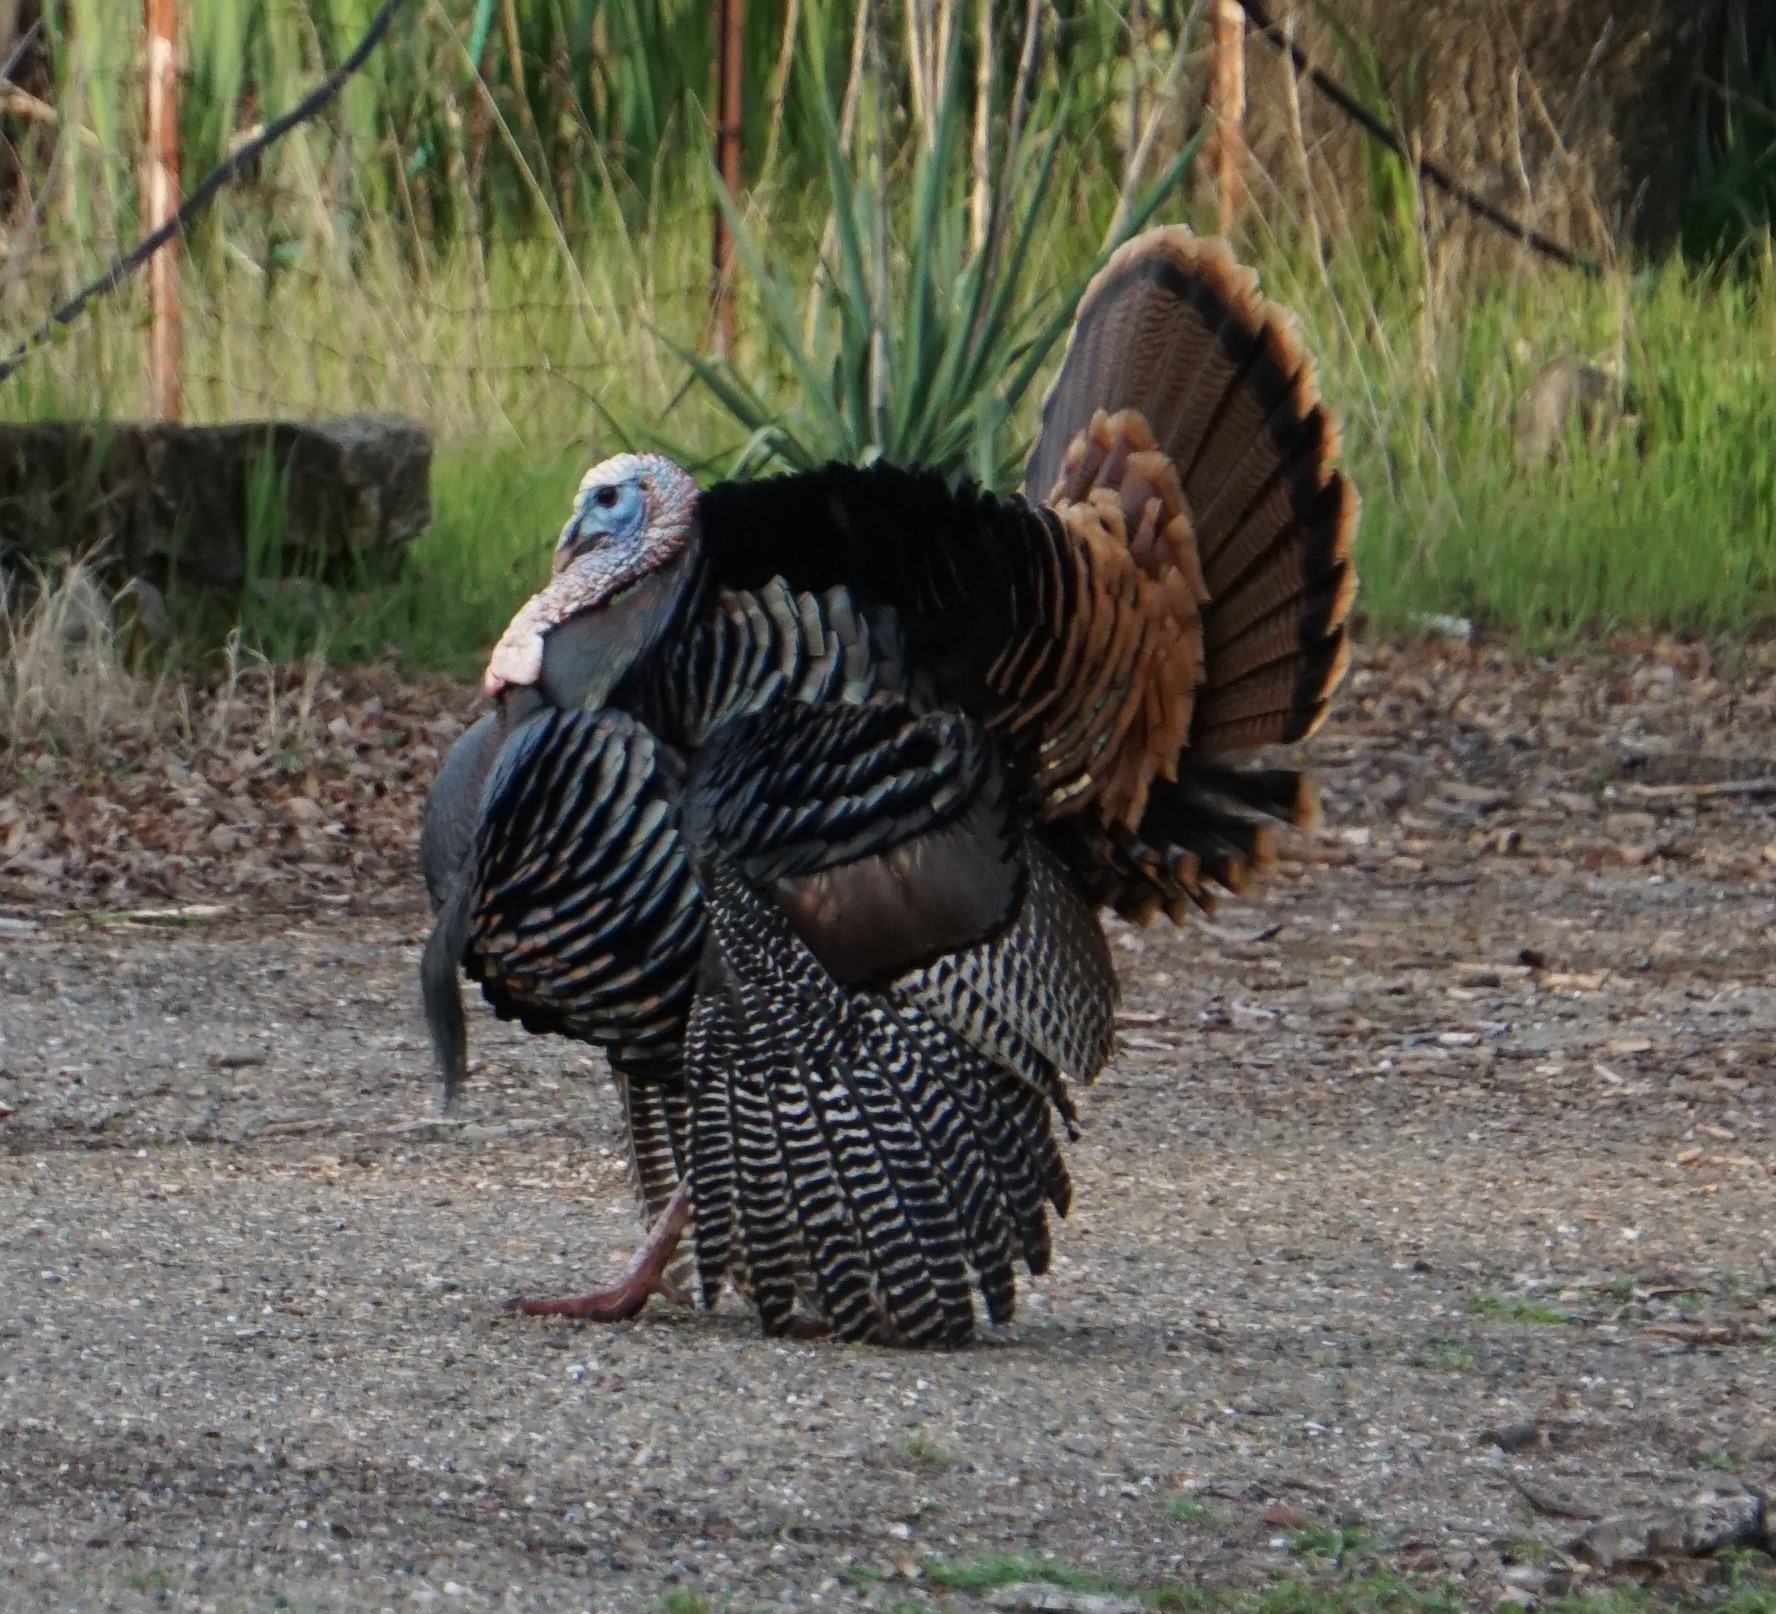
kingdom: Animalia
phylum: Chordata
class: Aves
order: Galliformes
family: Phasianidae
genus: Meleagris
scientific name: Meleagris gallopavo
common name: Wild turkey
